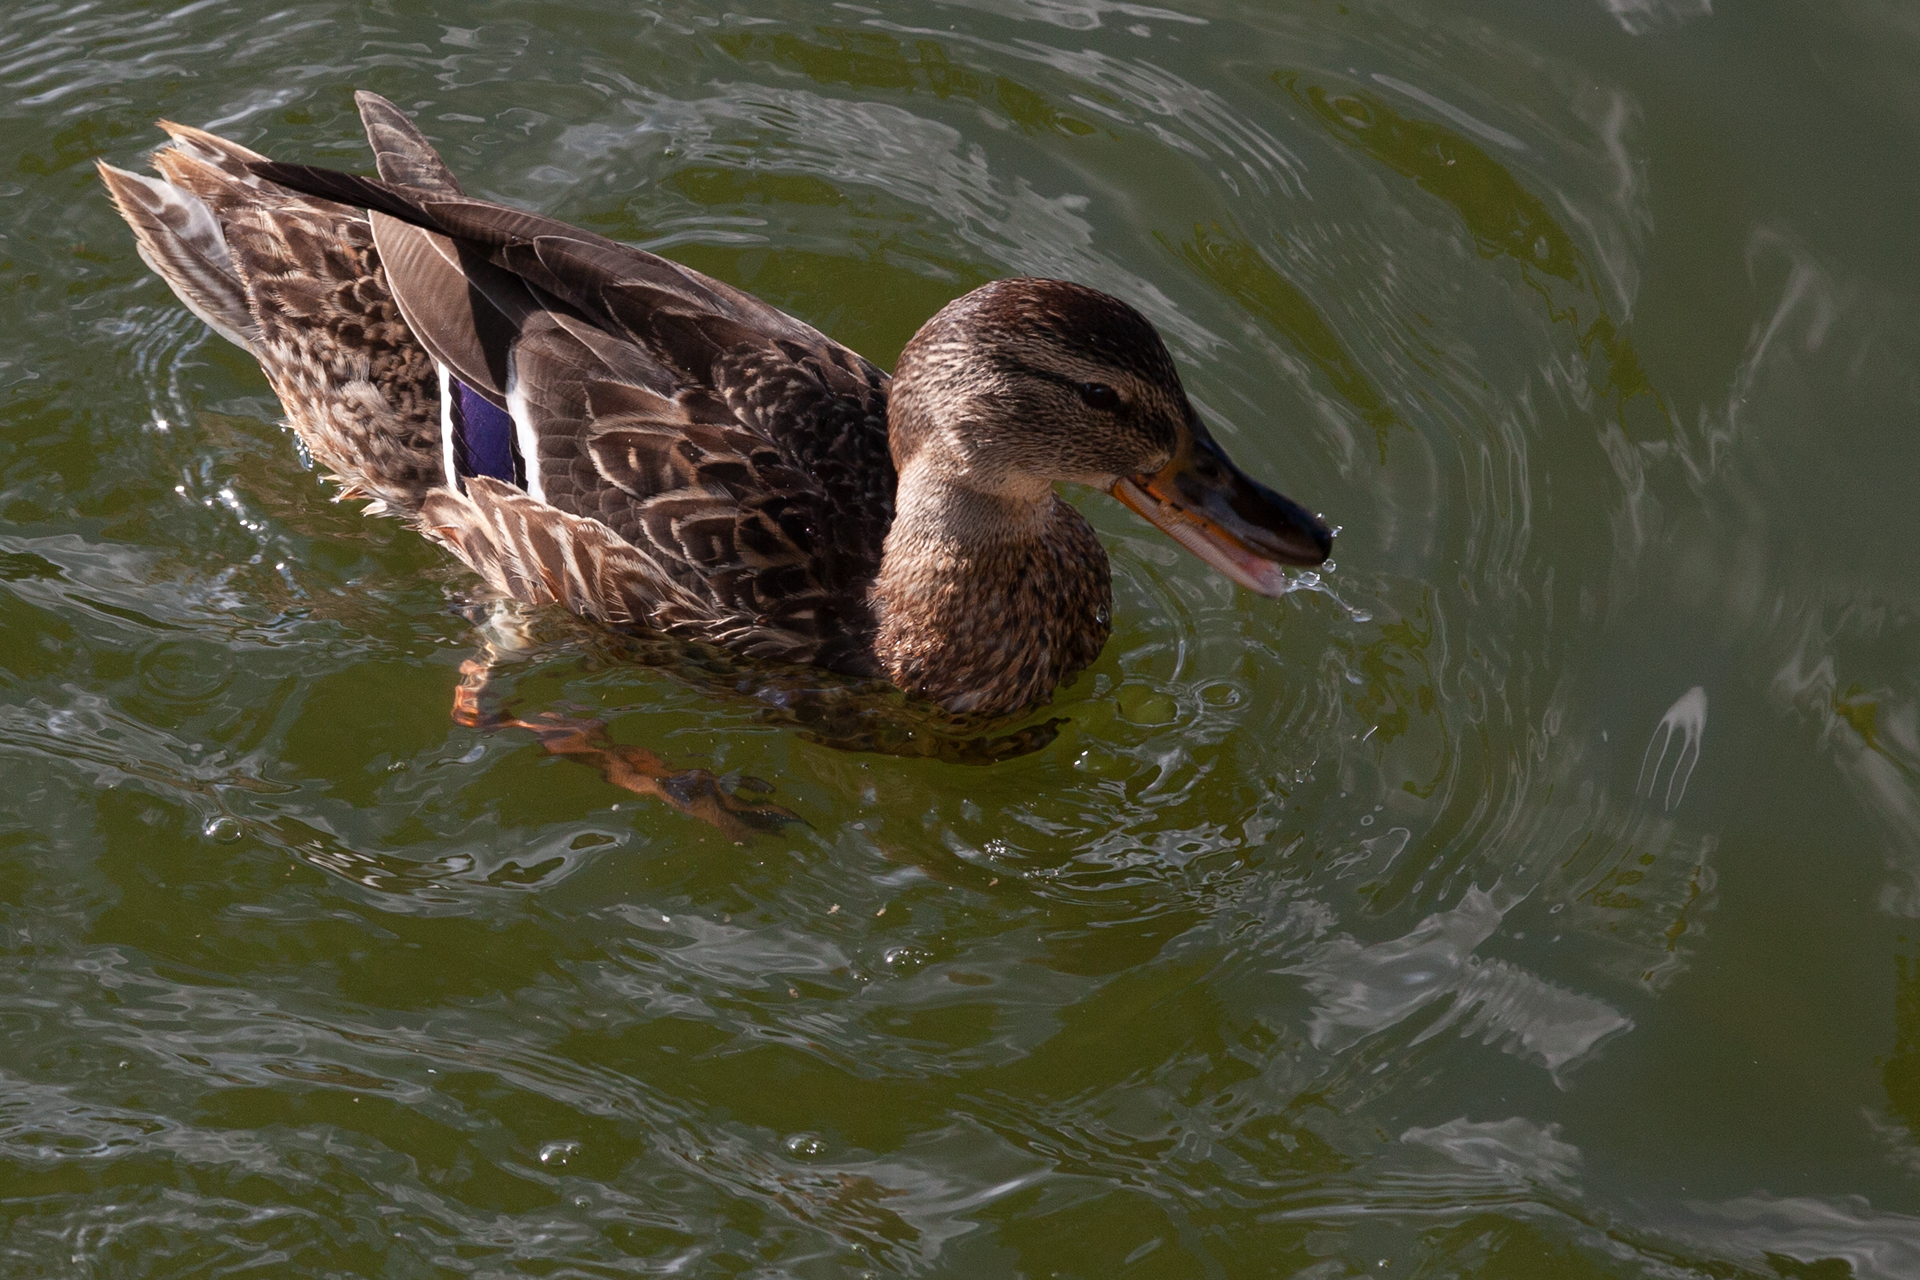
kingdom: Animalia
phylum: Chordata
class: Aves
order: Anseriformes
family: Anatidae
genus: Anas
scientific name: Anas platyrhynchos
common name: Mallard
